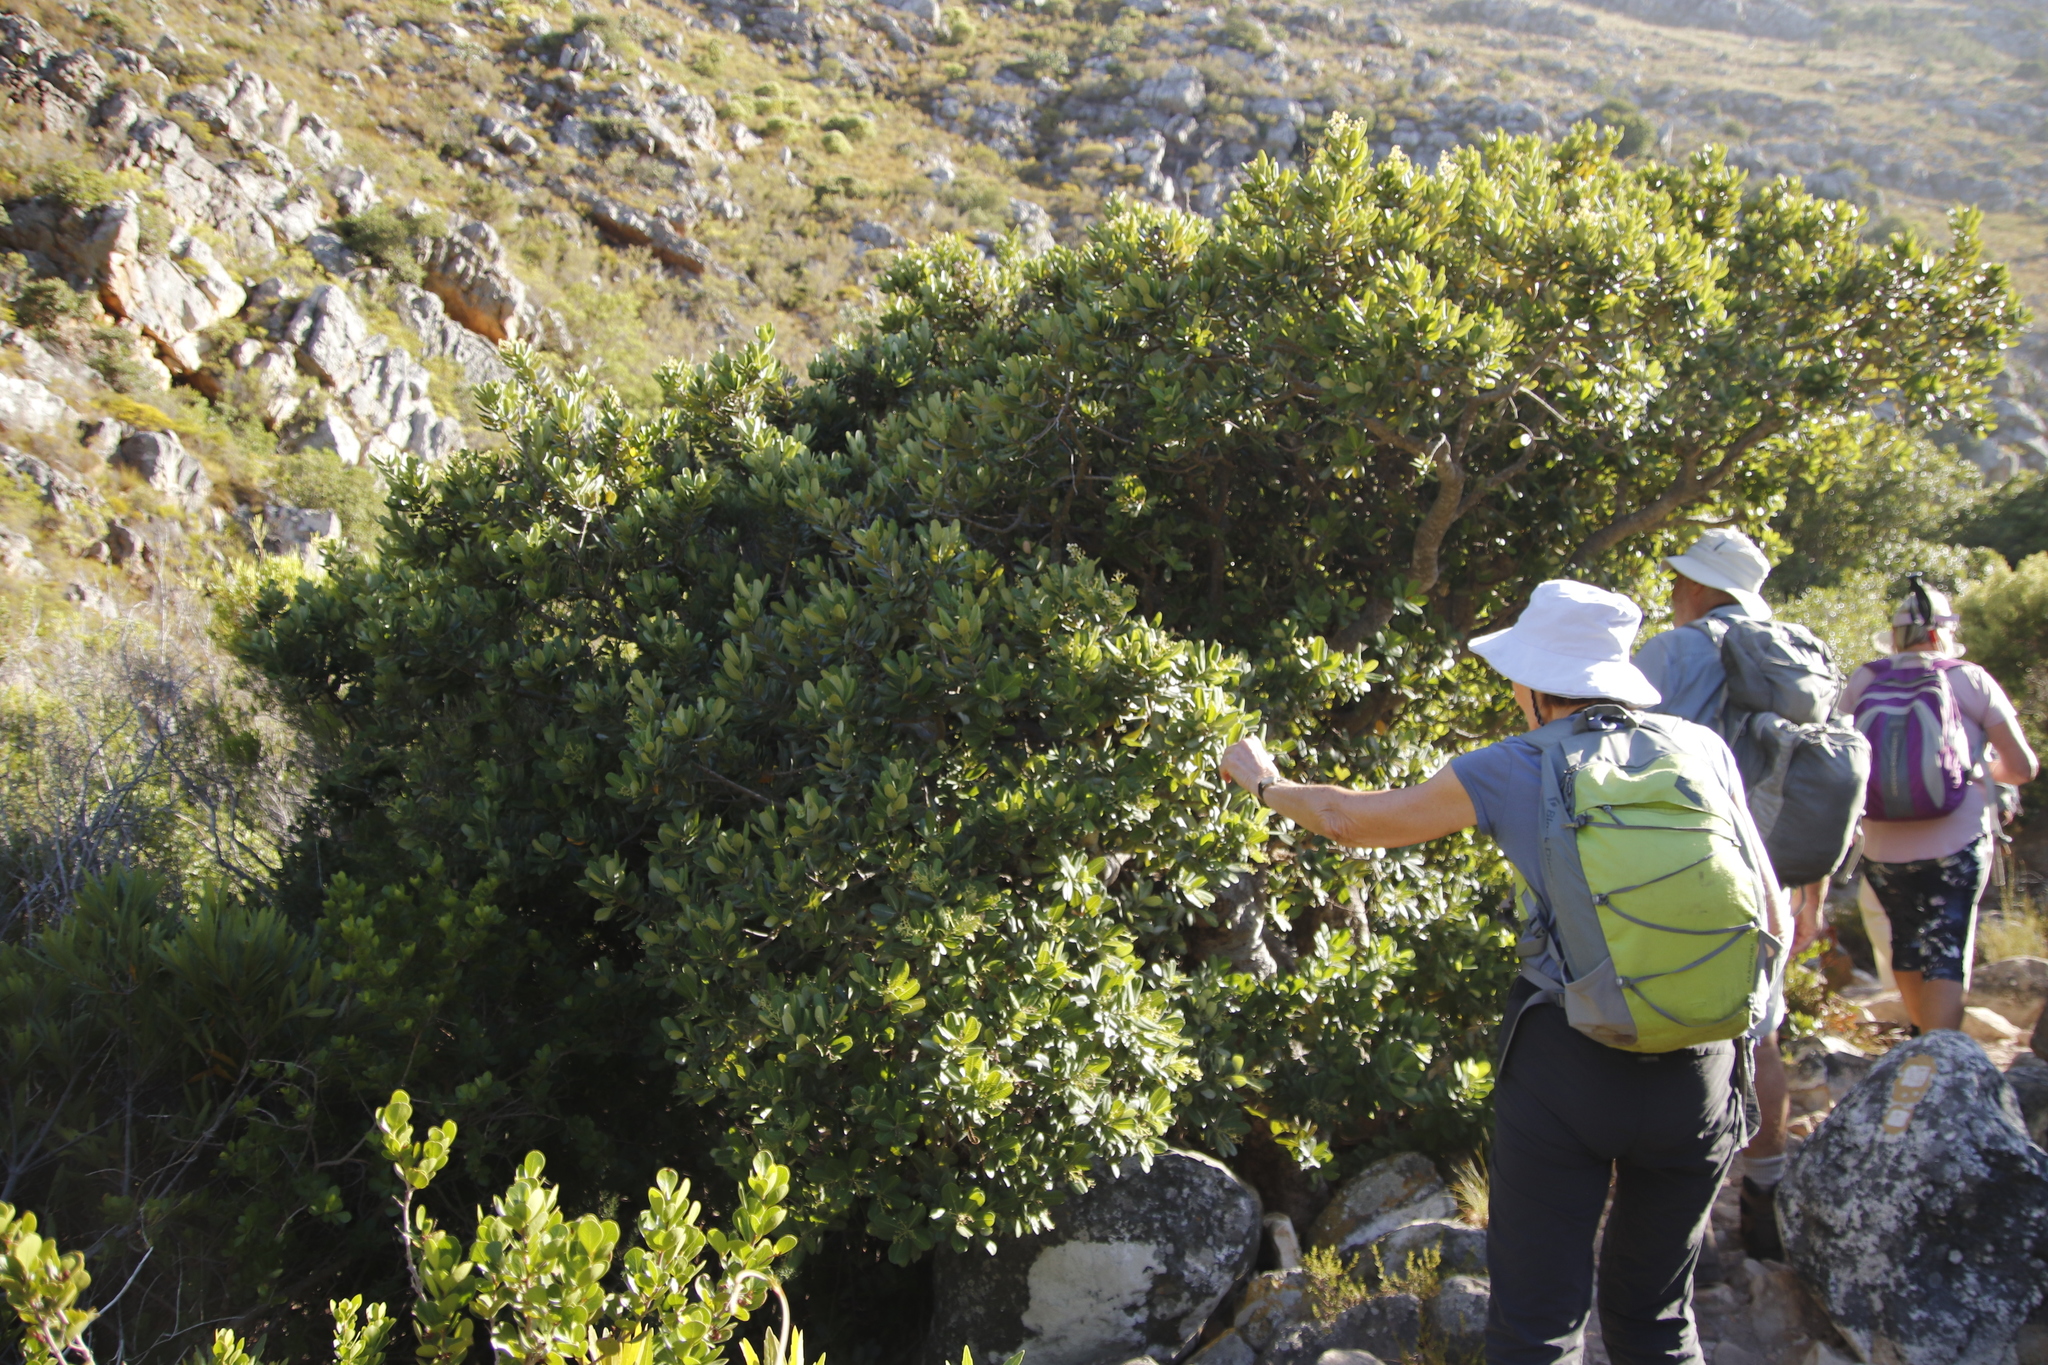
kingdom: Plantae
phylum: Tracheophyta
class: Magnoliopsida
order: Sapindales
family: Anacardiaceae
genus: Heeria
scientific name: Heeria argentea
